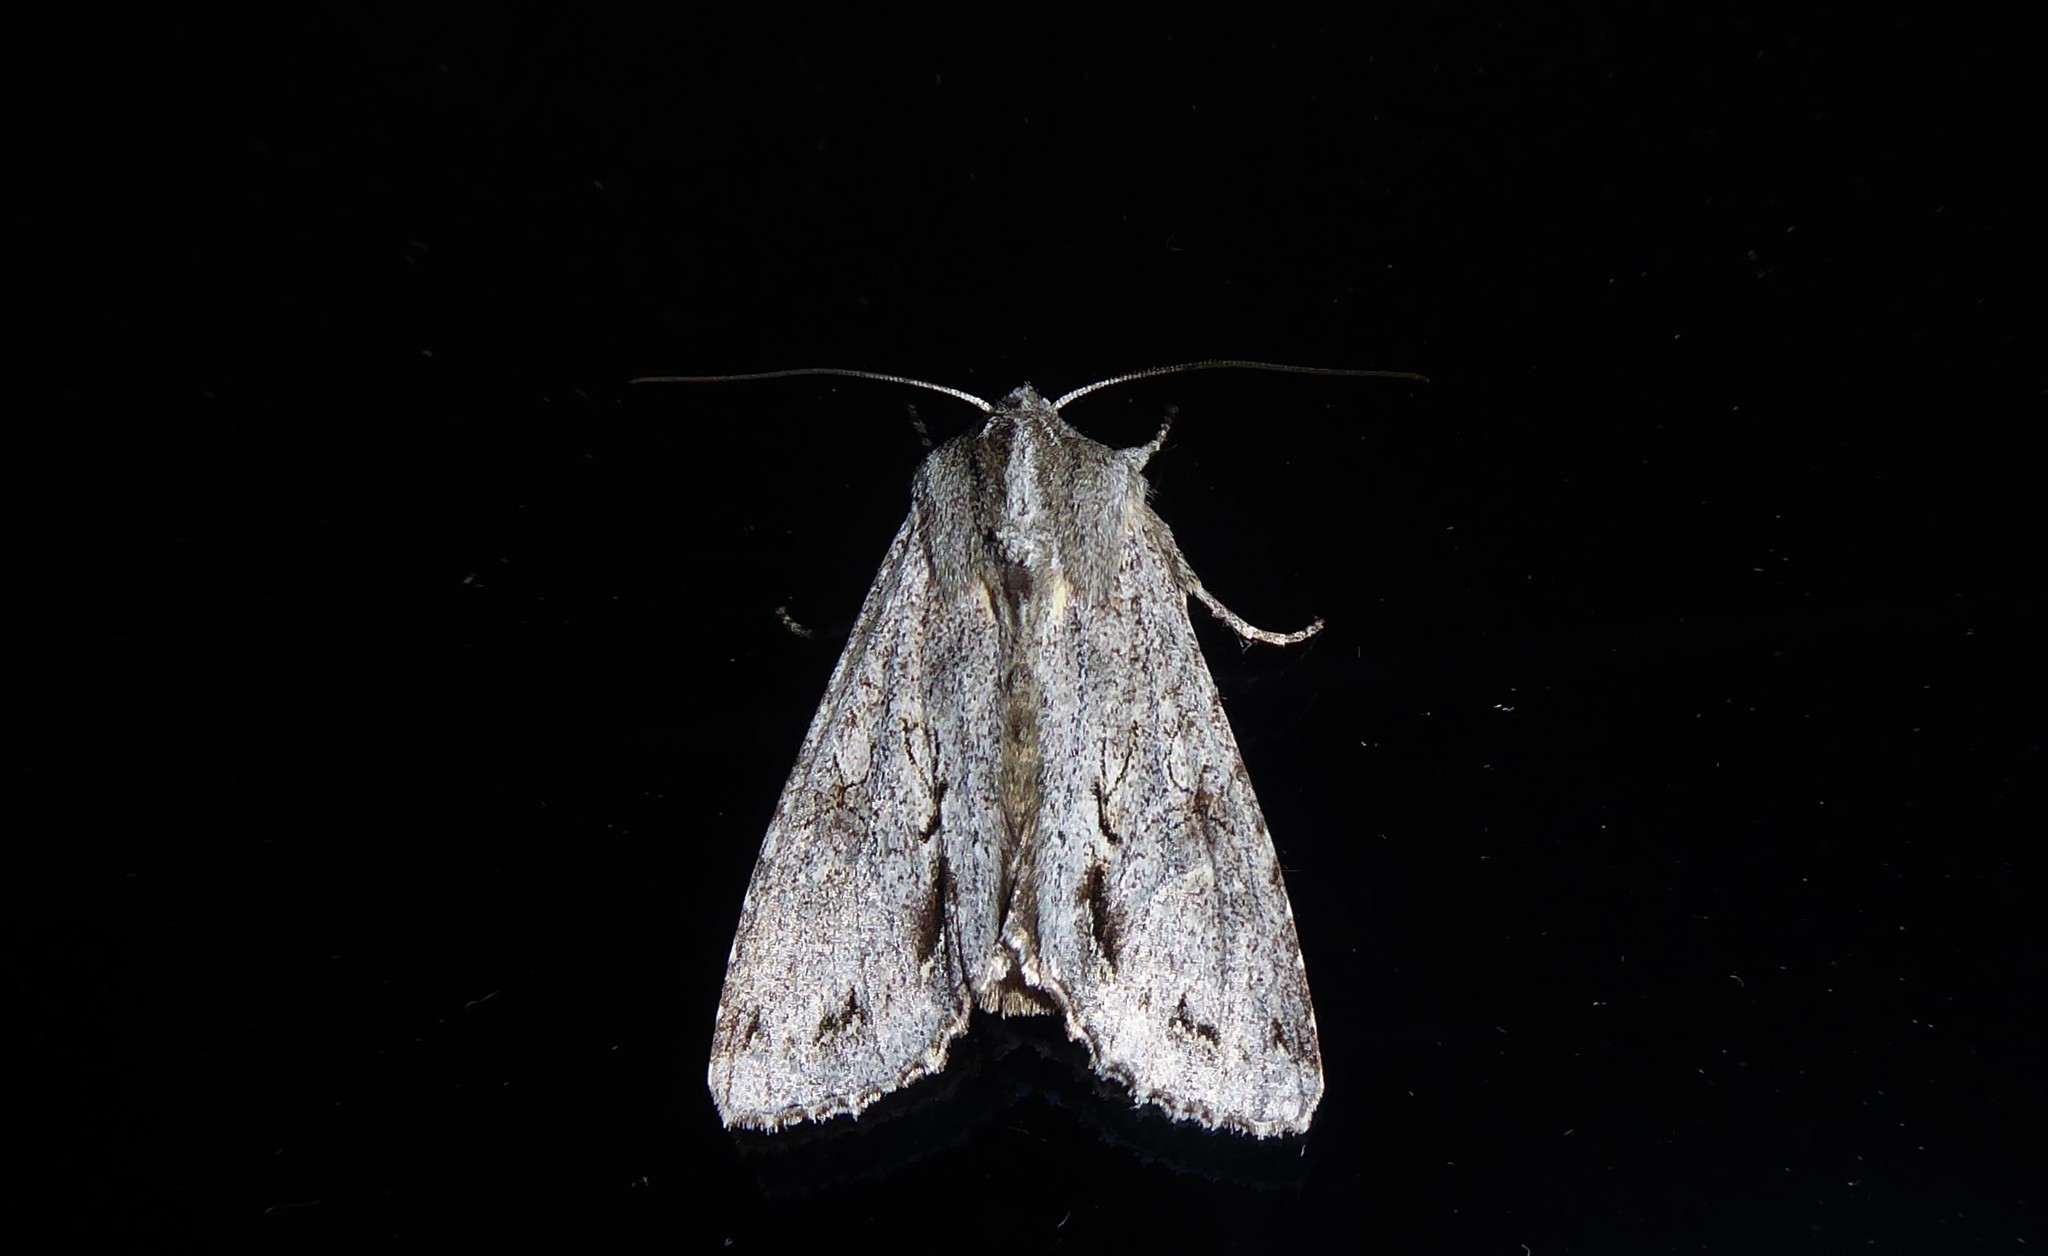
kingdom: Animalia
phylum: Arthropoda
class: Insecta
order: Lepidoptera
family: Noctuidae
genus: Ichneutica
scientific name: Ichneutica
